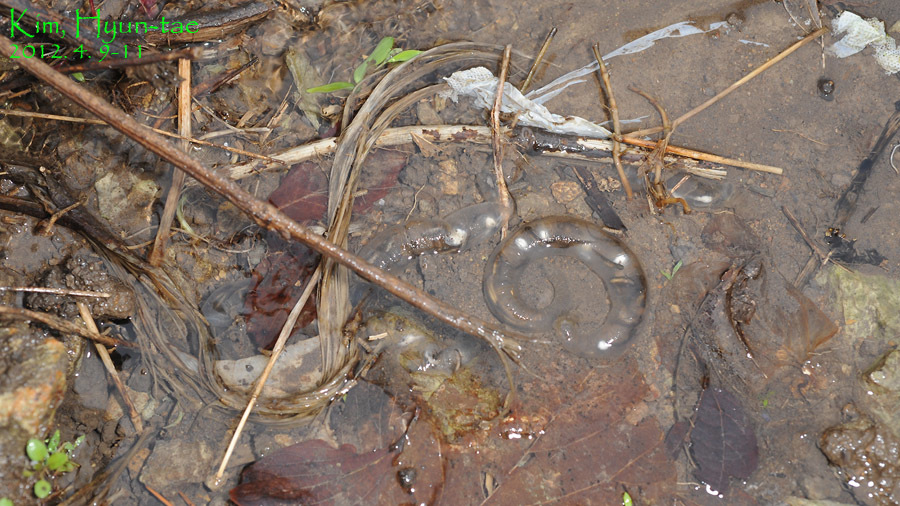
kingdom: Animalia
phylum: Chordata
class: Amphibia
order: Caudata
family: Hynobiidae
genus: Hynobius
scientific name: Hynobius geojeensis
